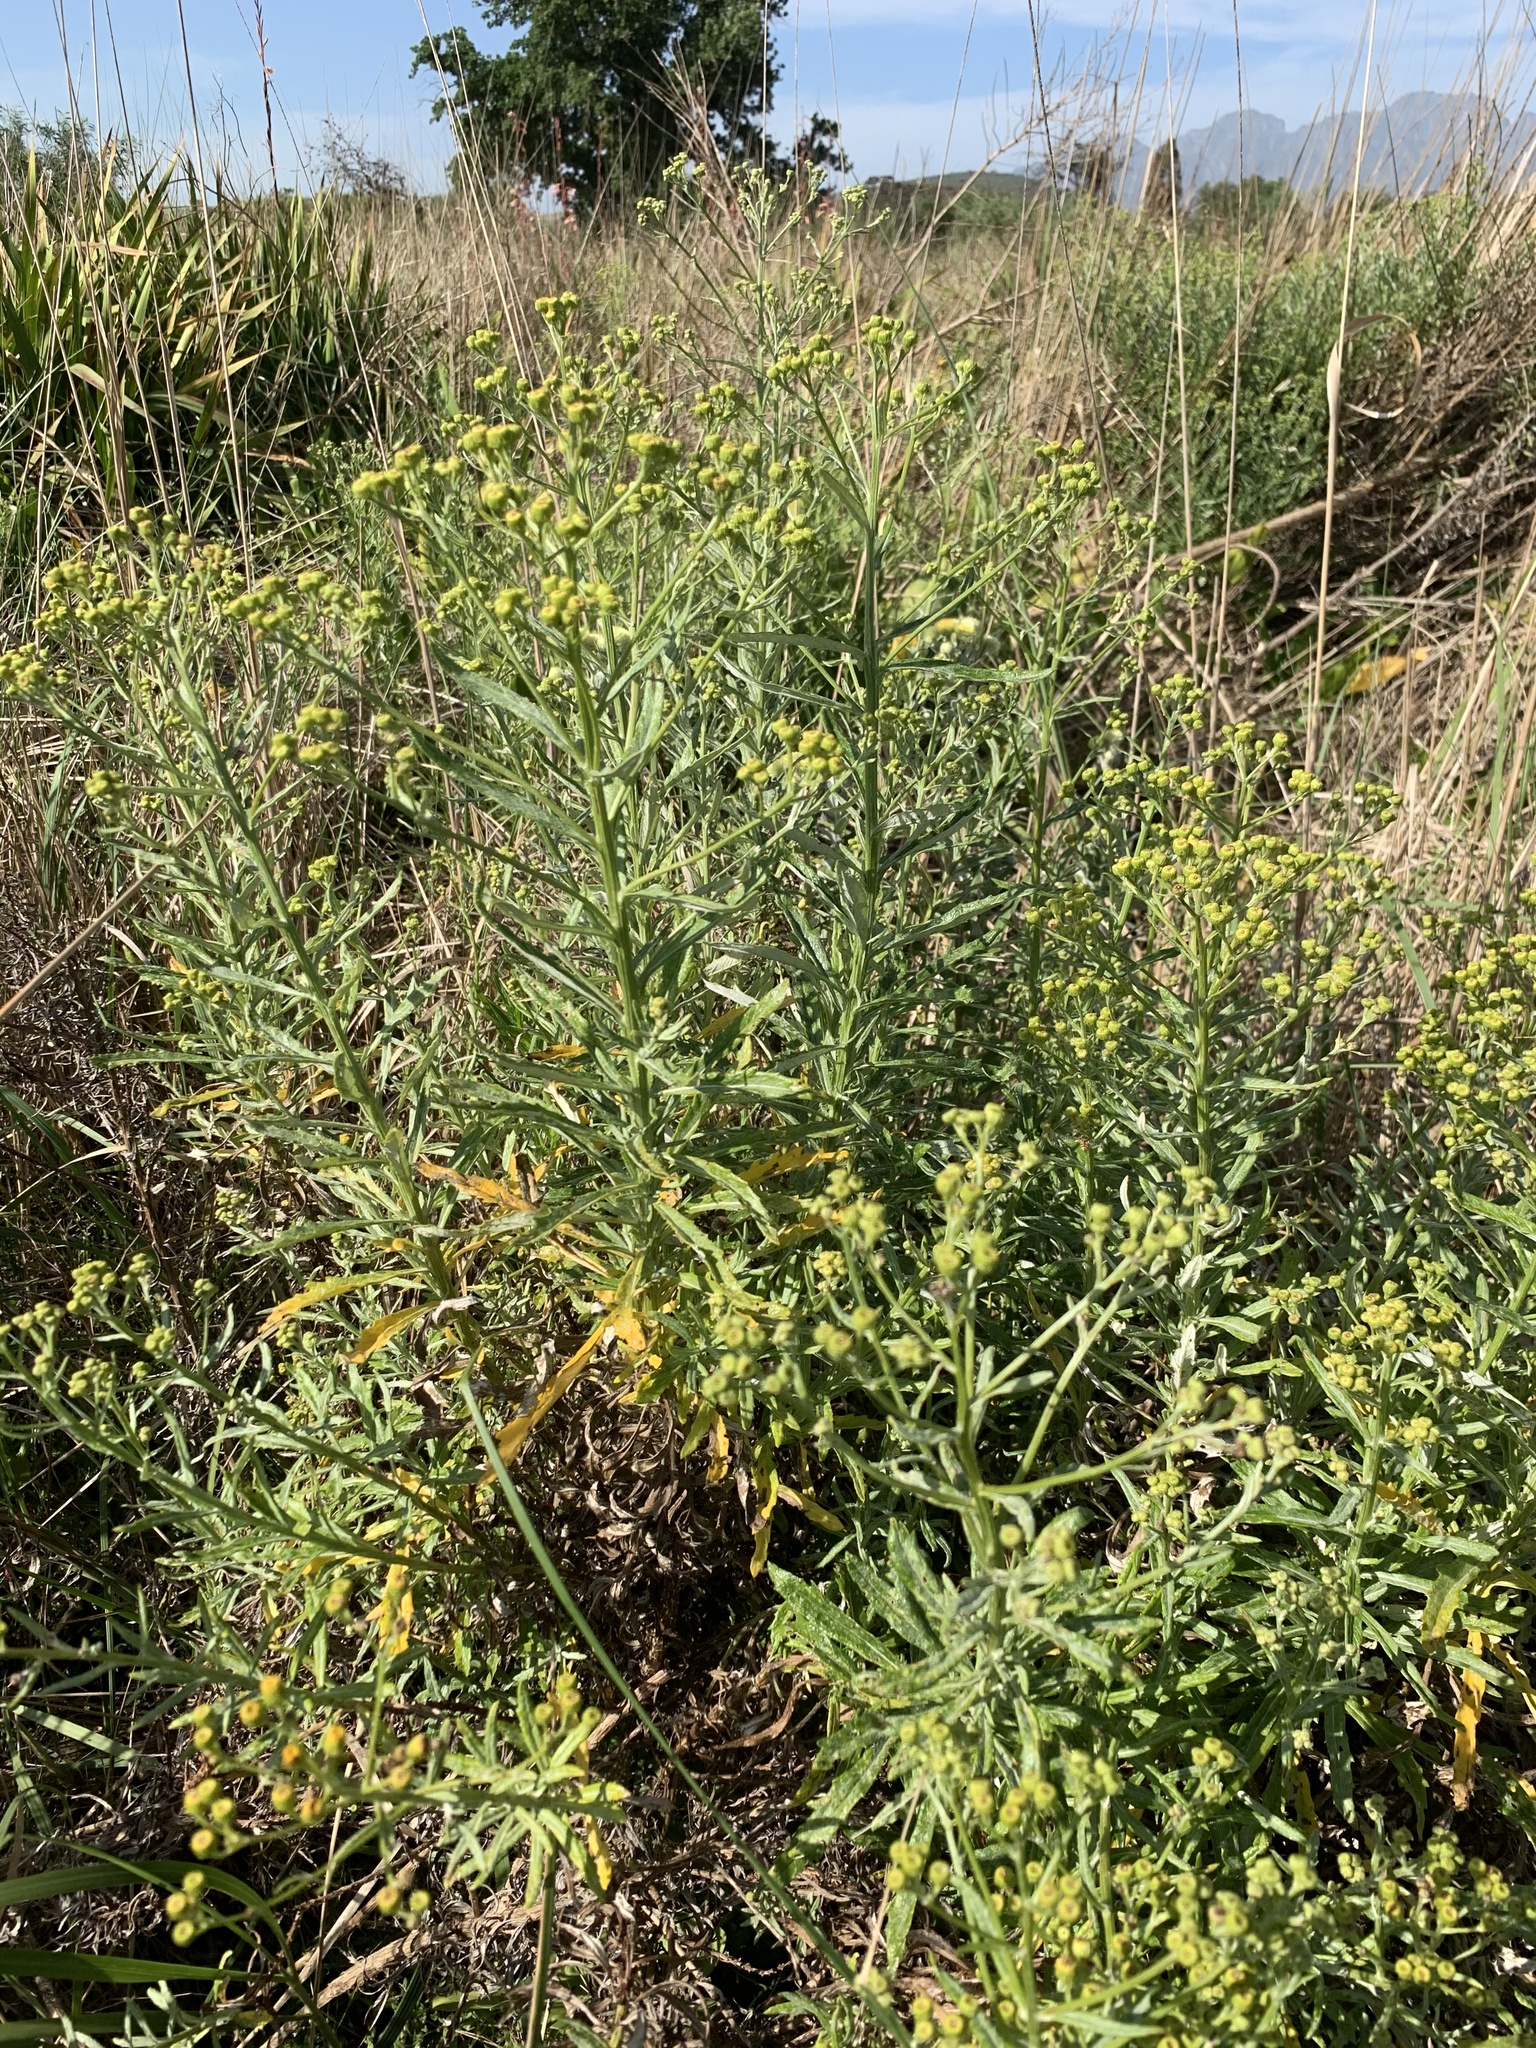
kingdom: Plantae
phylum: Tracheophyta
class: Magnoliopsida
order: Asterales
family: Asteraceae
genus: Senecio
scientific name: Senecio pterophorus
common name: Shoddy ragwort
